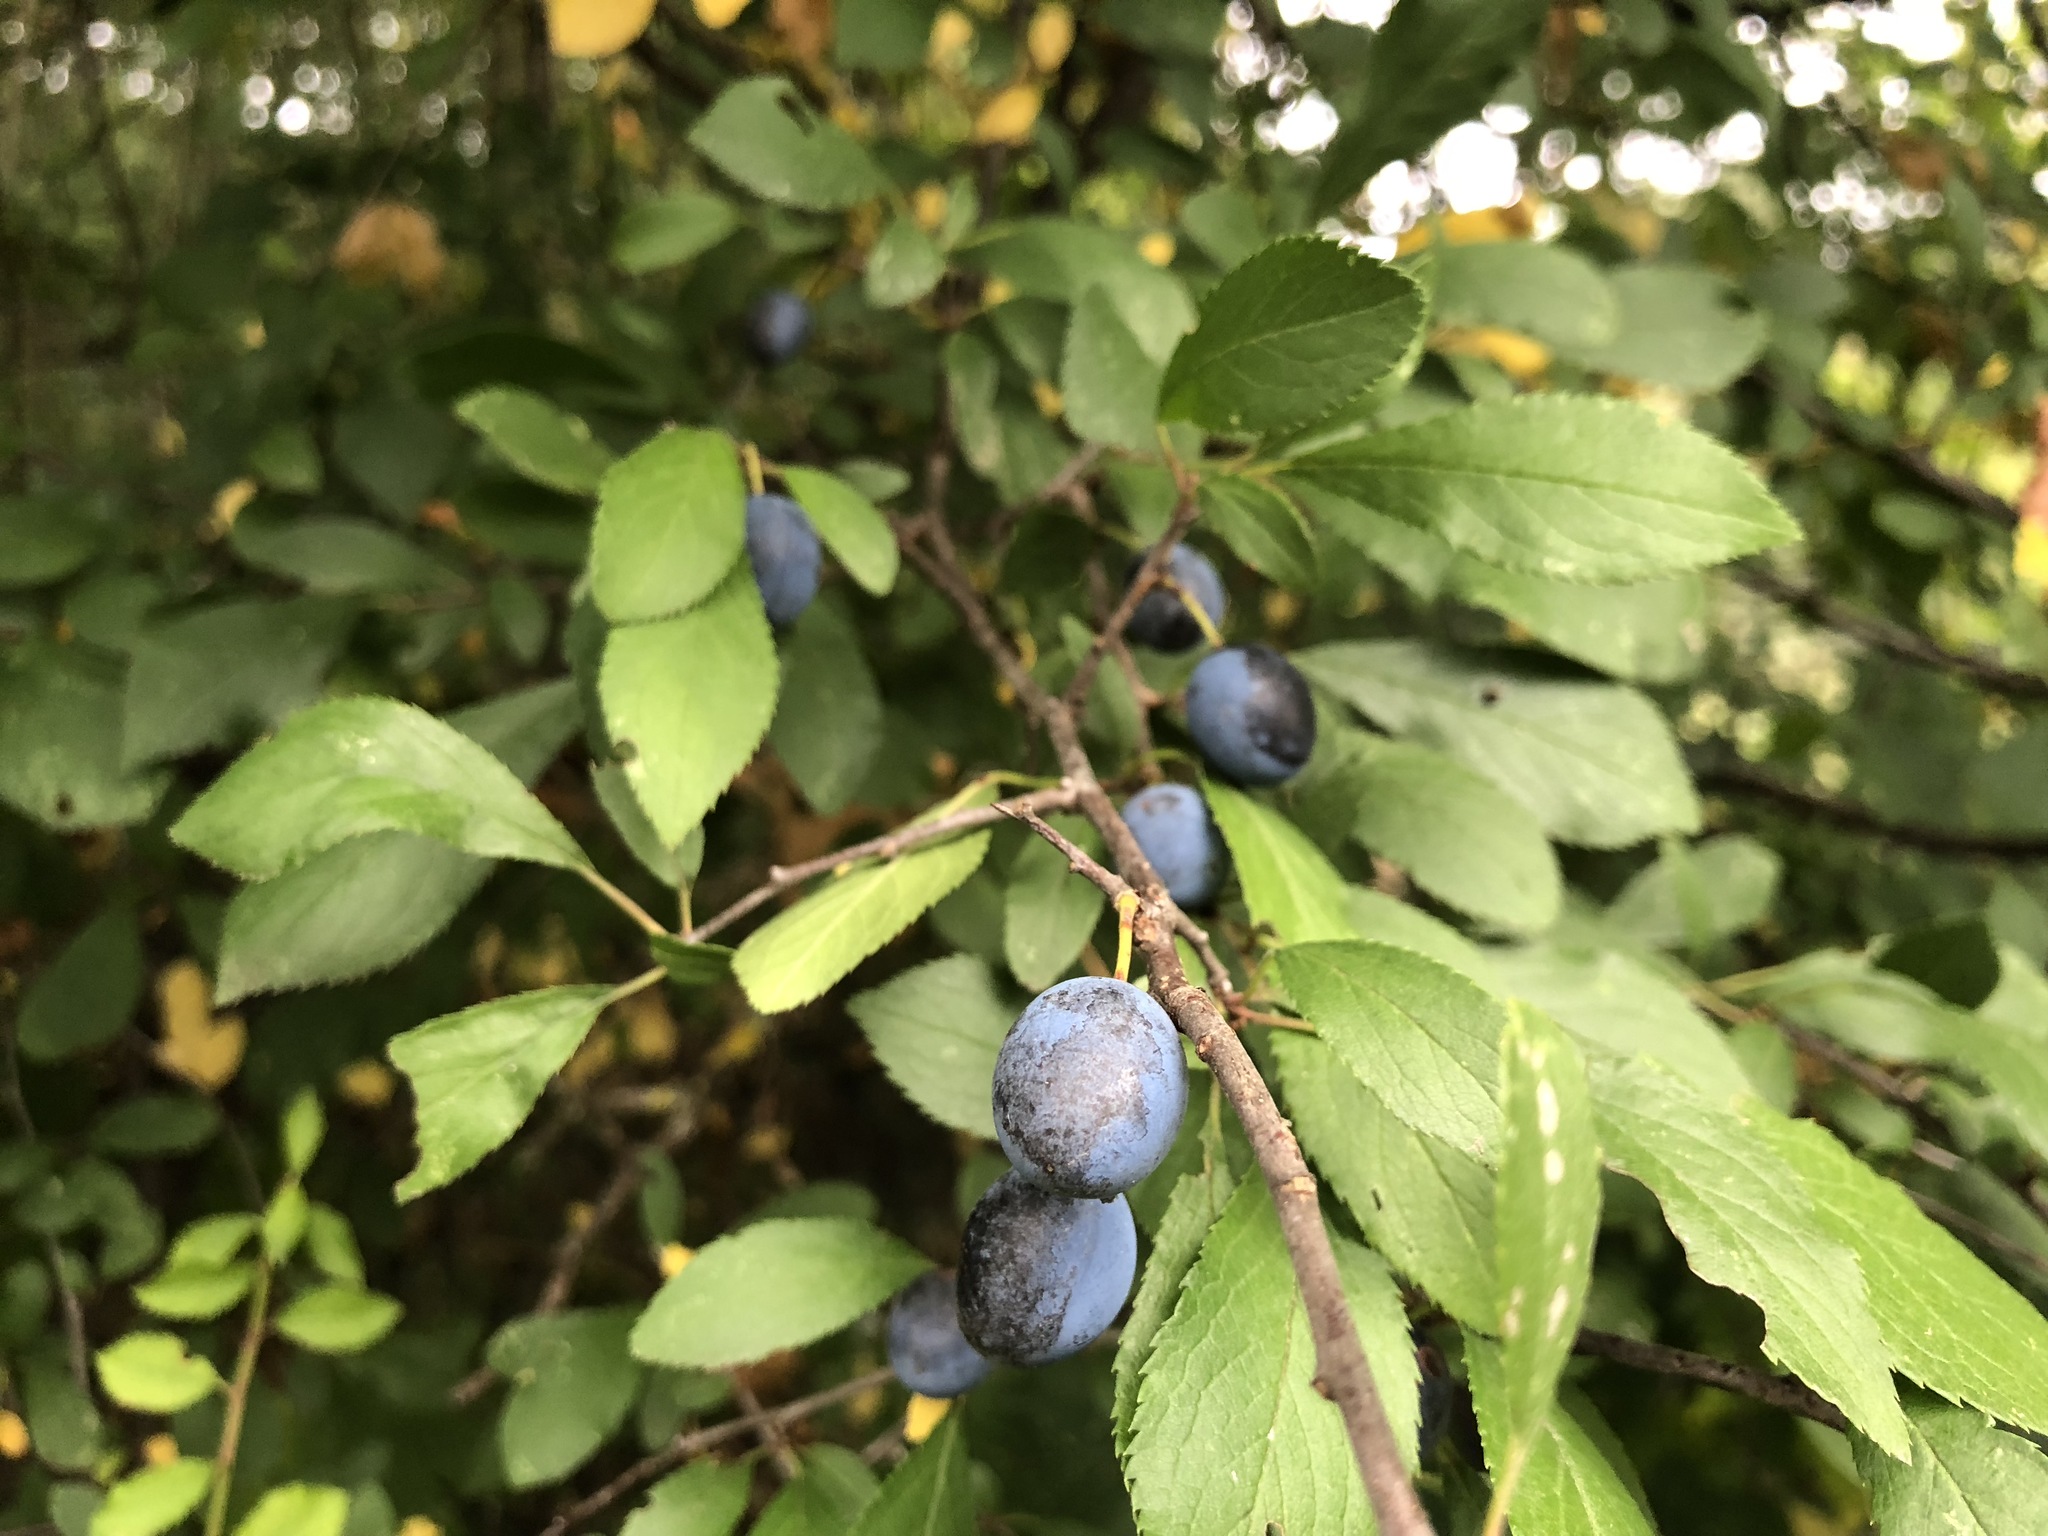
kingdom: Plantae
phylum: Tracheophyta
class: Magnoliopsida
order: Rosales
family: Rosaceae
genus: Prunus
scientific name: Prunus
